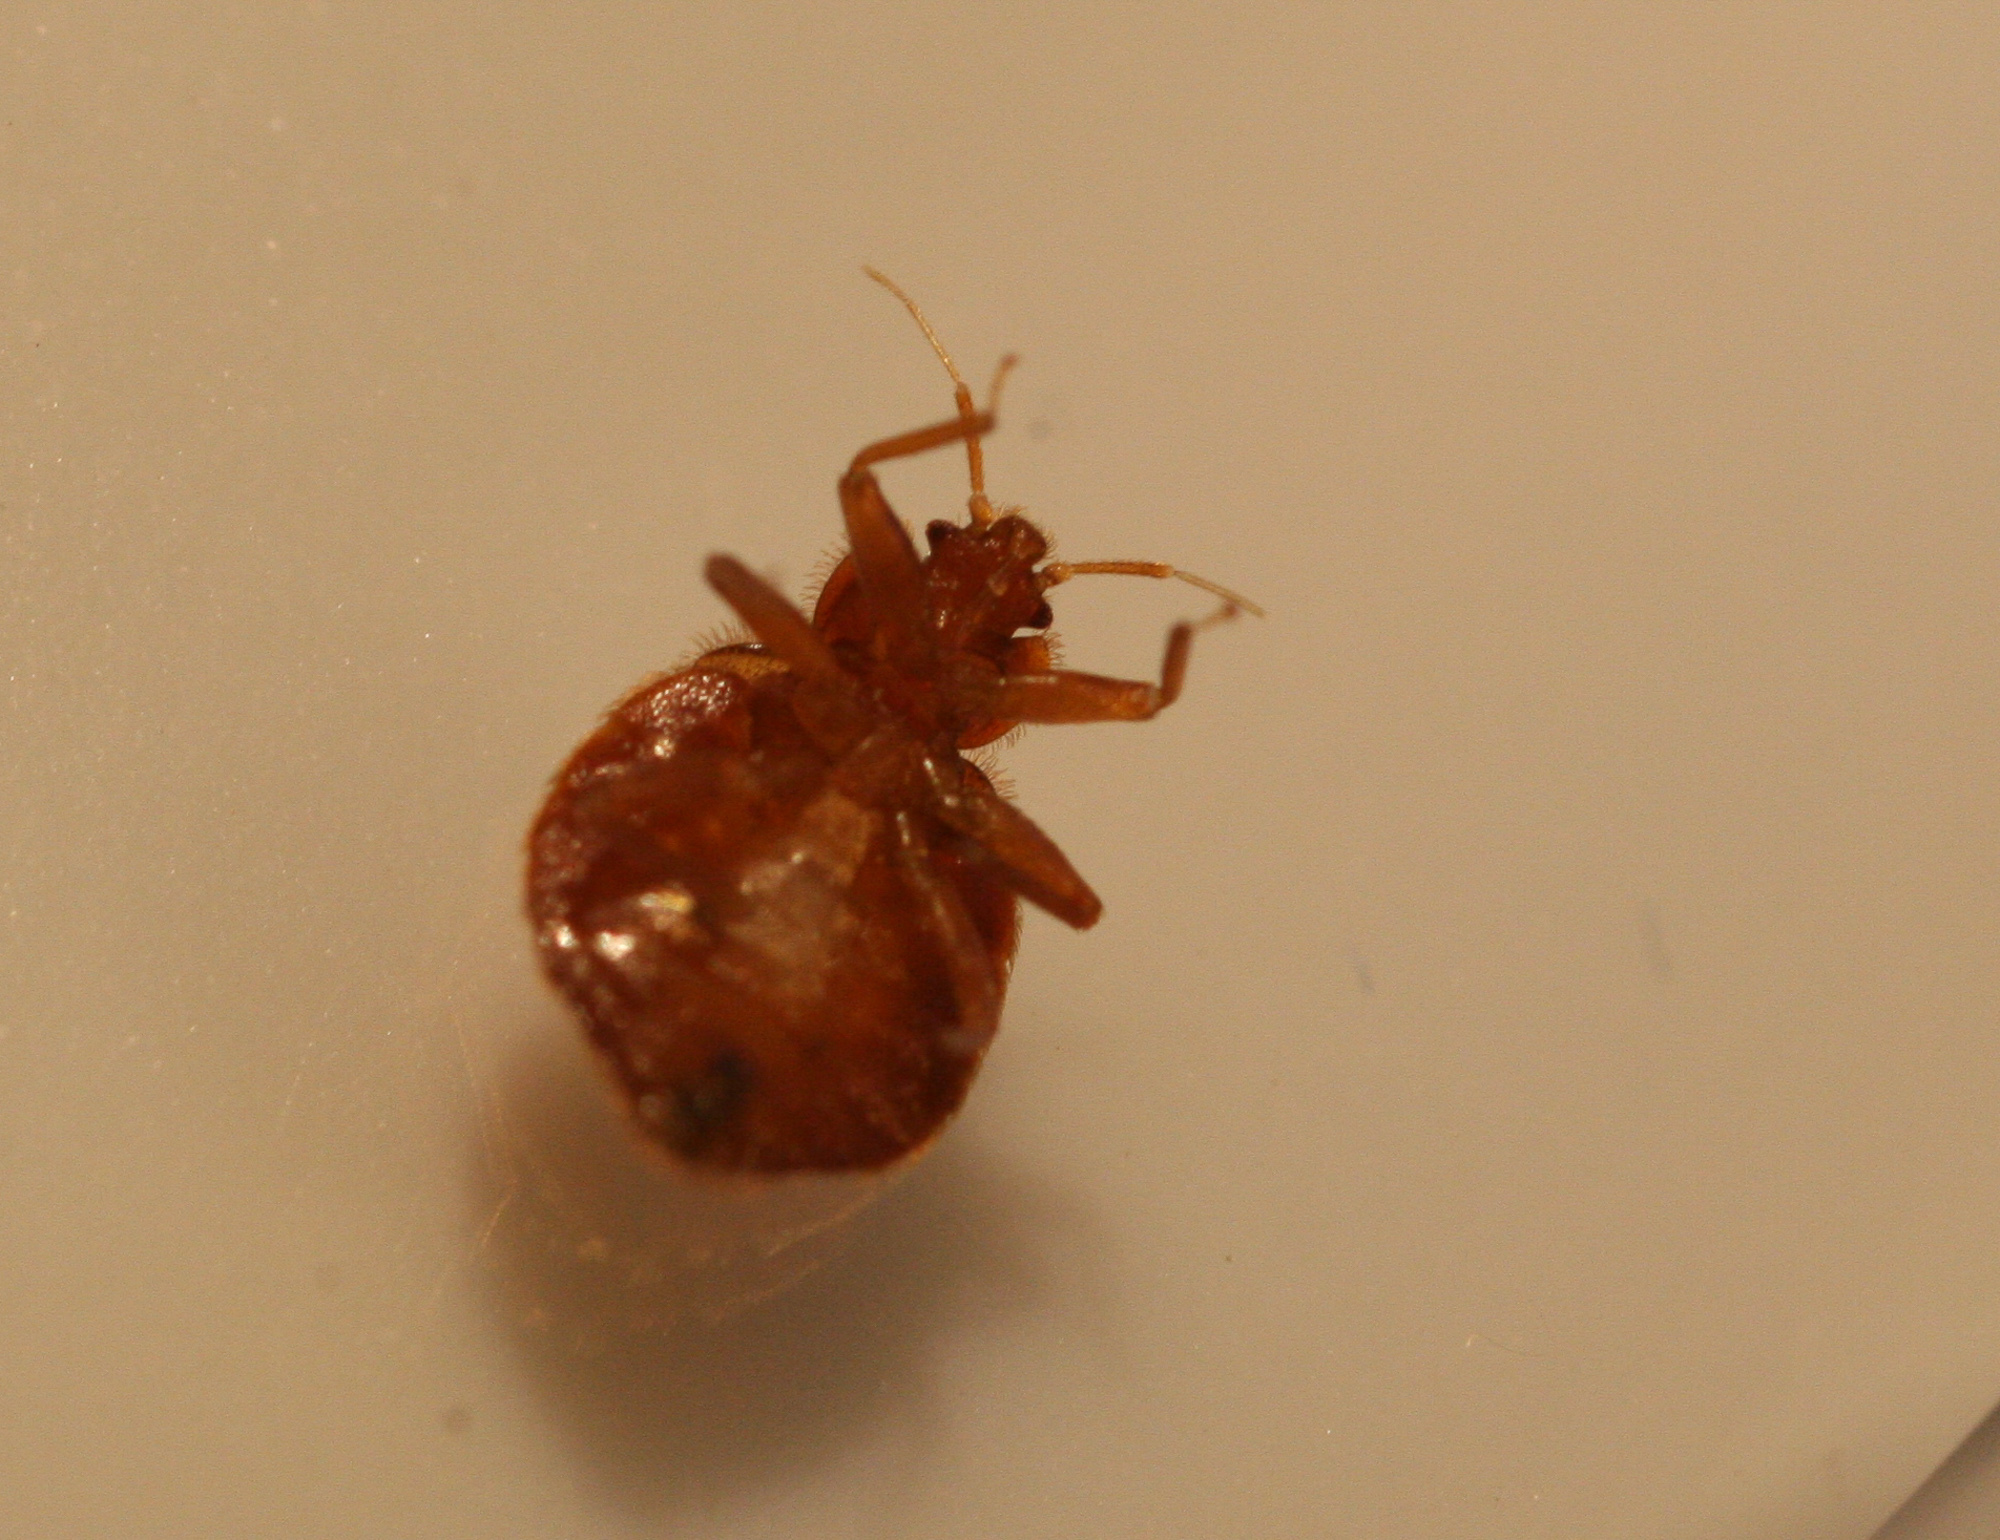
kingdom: Animalia
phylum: Arthropoda
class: Insecta
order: Hemiptera
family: Cimicidae
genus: Cimex
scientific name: Cimex lectularius
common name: Bed bug
